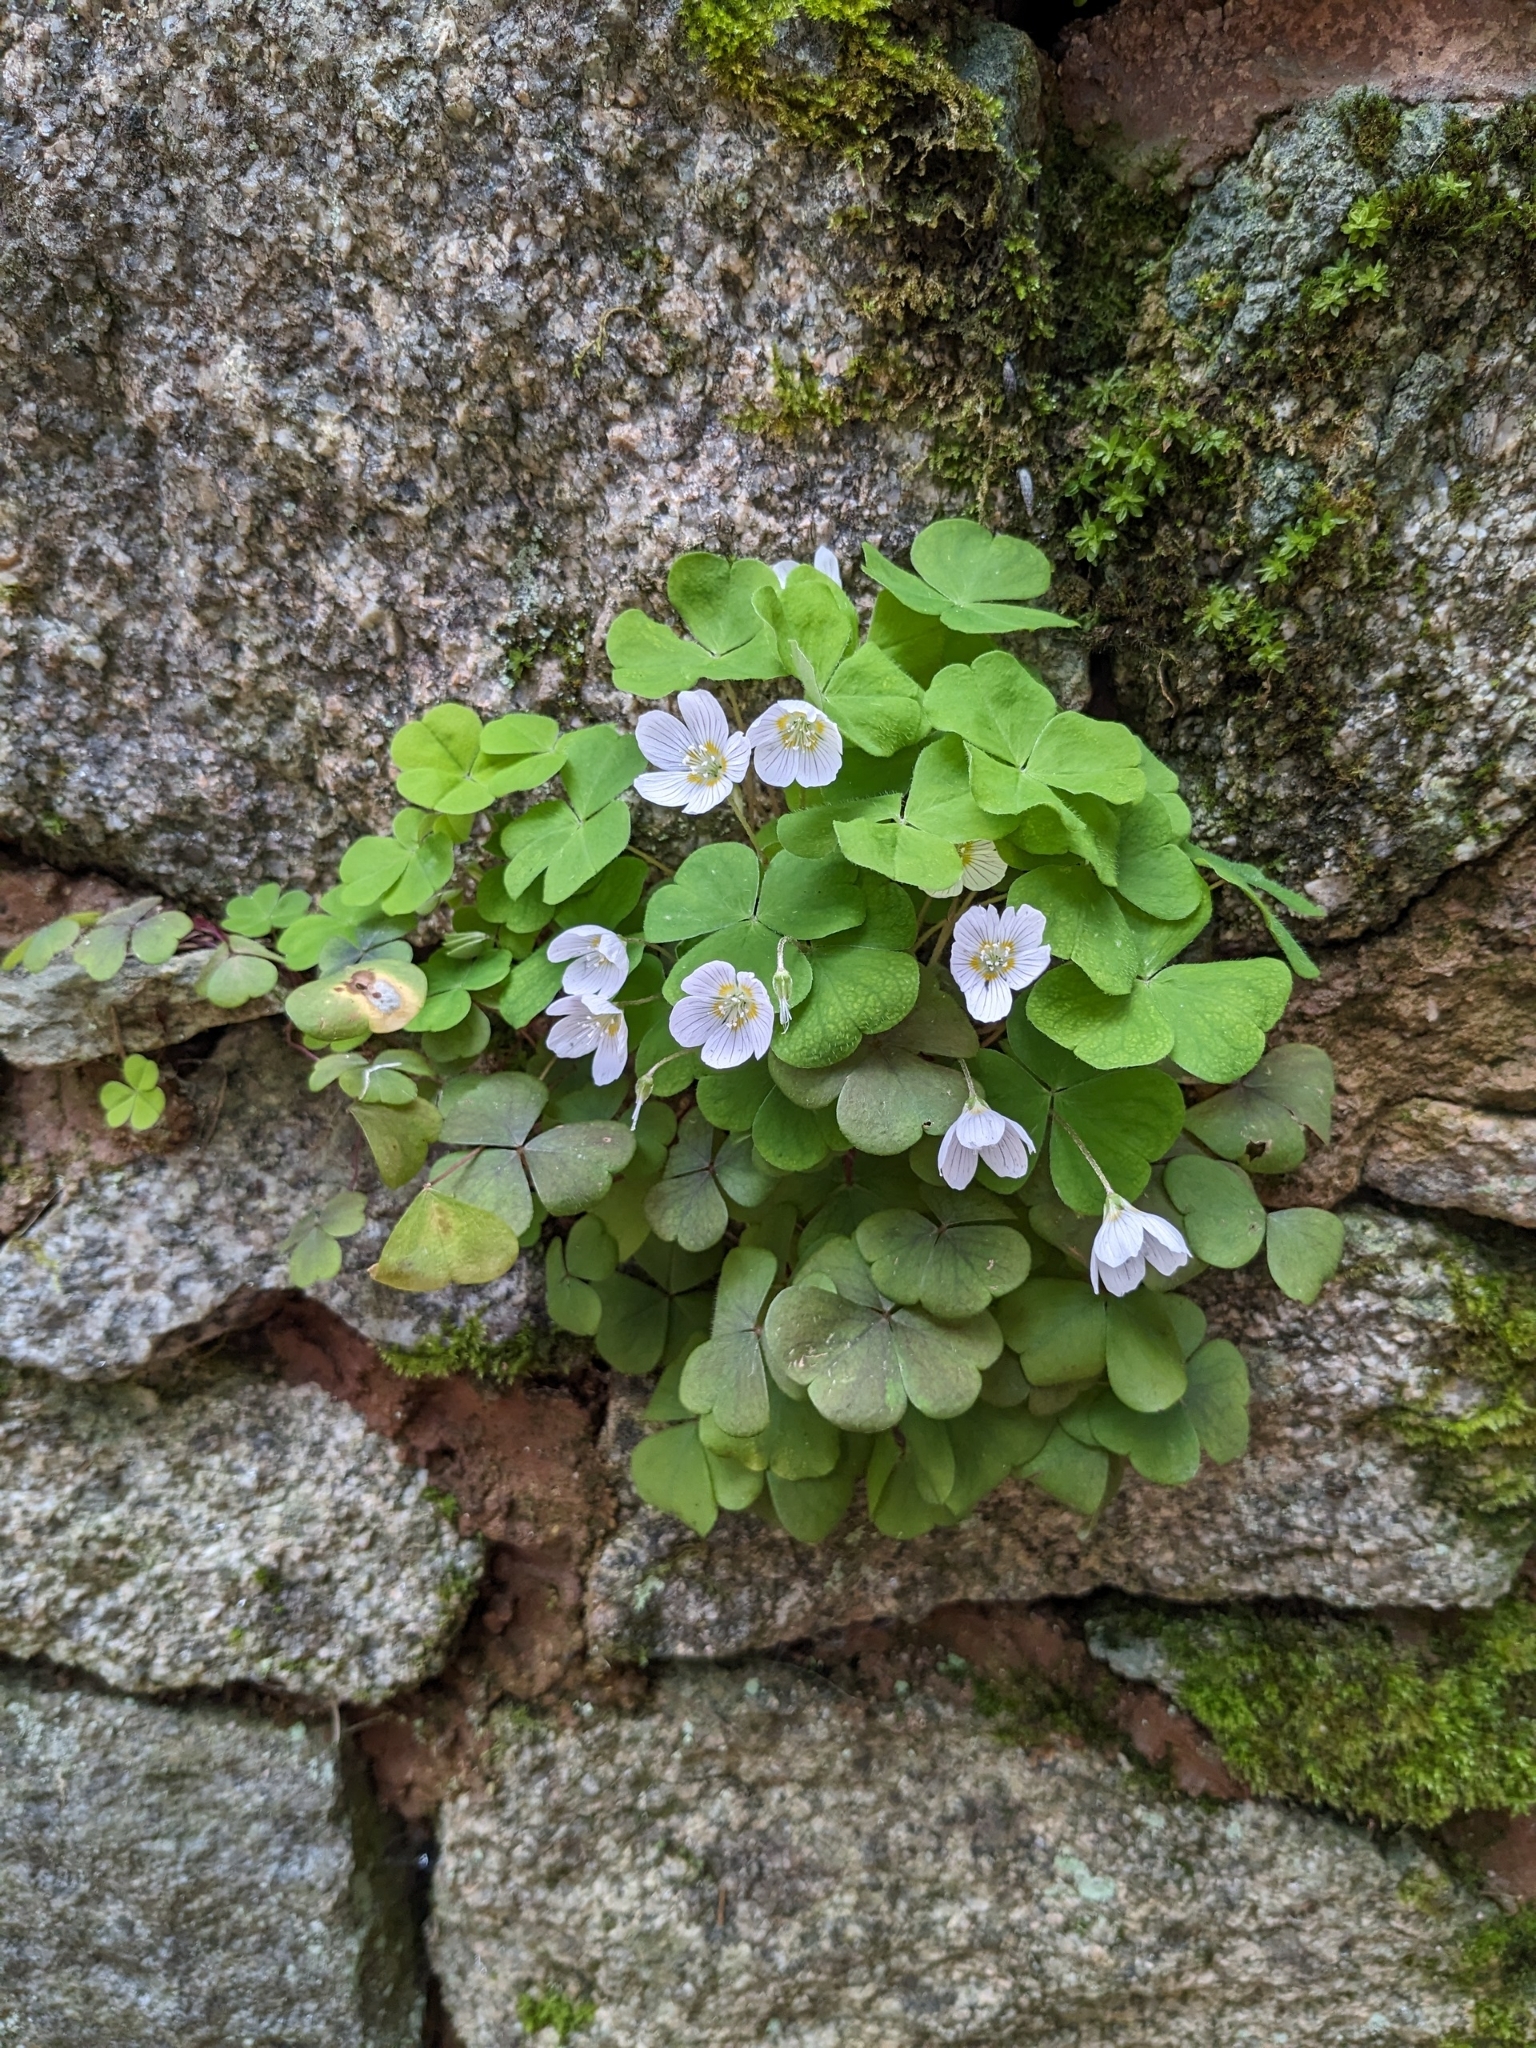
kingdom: Plantae
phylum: Tracheophyta
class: Magnoliopsida
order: Oxalidales
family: Oxalidaceae
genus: Oxalis
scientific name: Oxalis acetosella
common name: Wood-sorrel
